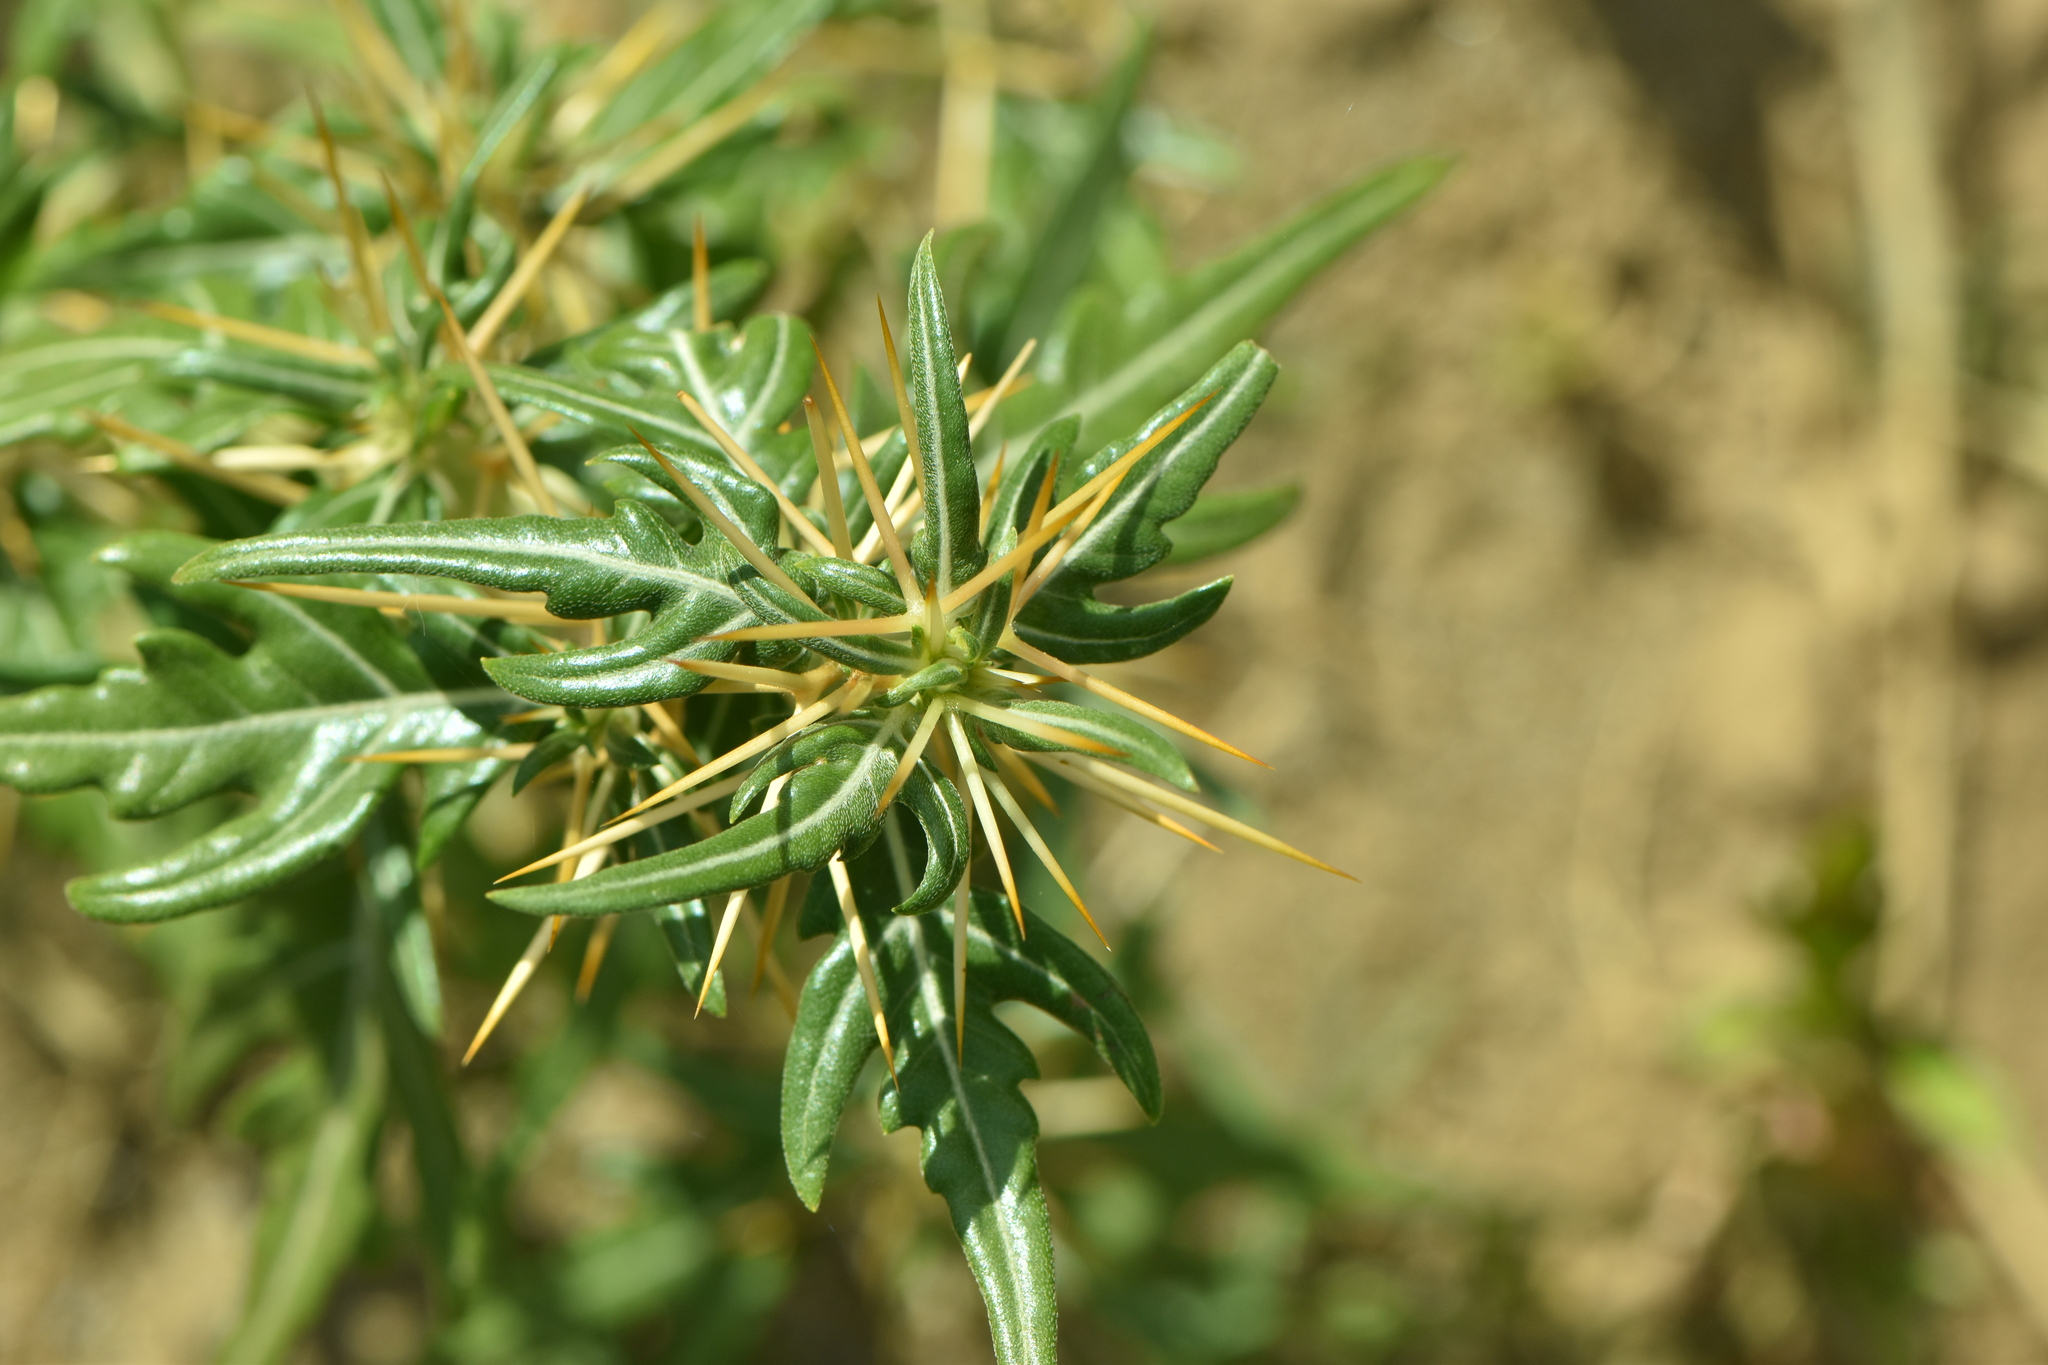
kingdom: Plantae
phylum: Tracheophyta
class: Magnoliopsida
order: Asterales
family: Asteraceae
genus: Xanthium
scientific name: Xanthium spinosum
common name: Spiny cocklebur
